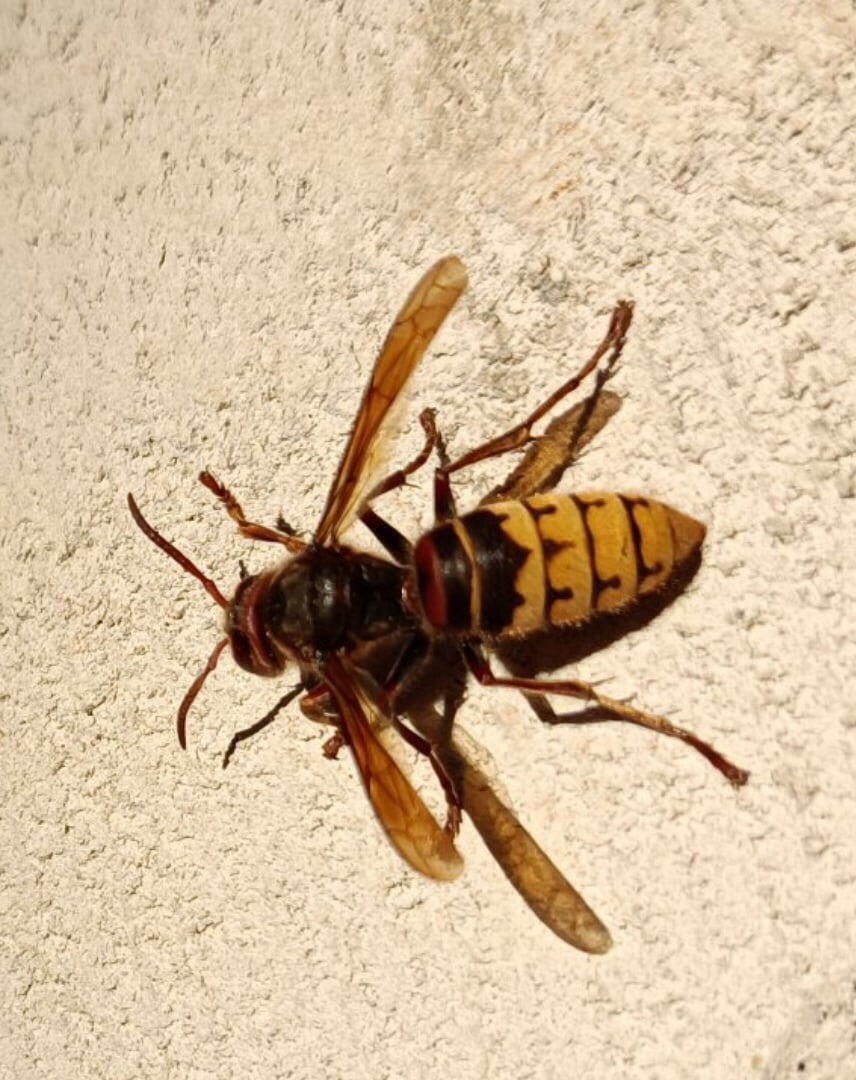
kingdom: Animalia
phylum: Arthropoda
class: Insecta
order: Hymenoptera
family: Vespidae
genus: Vespa
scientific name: Vespa crabro
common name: Hornet
